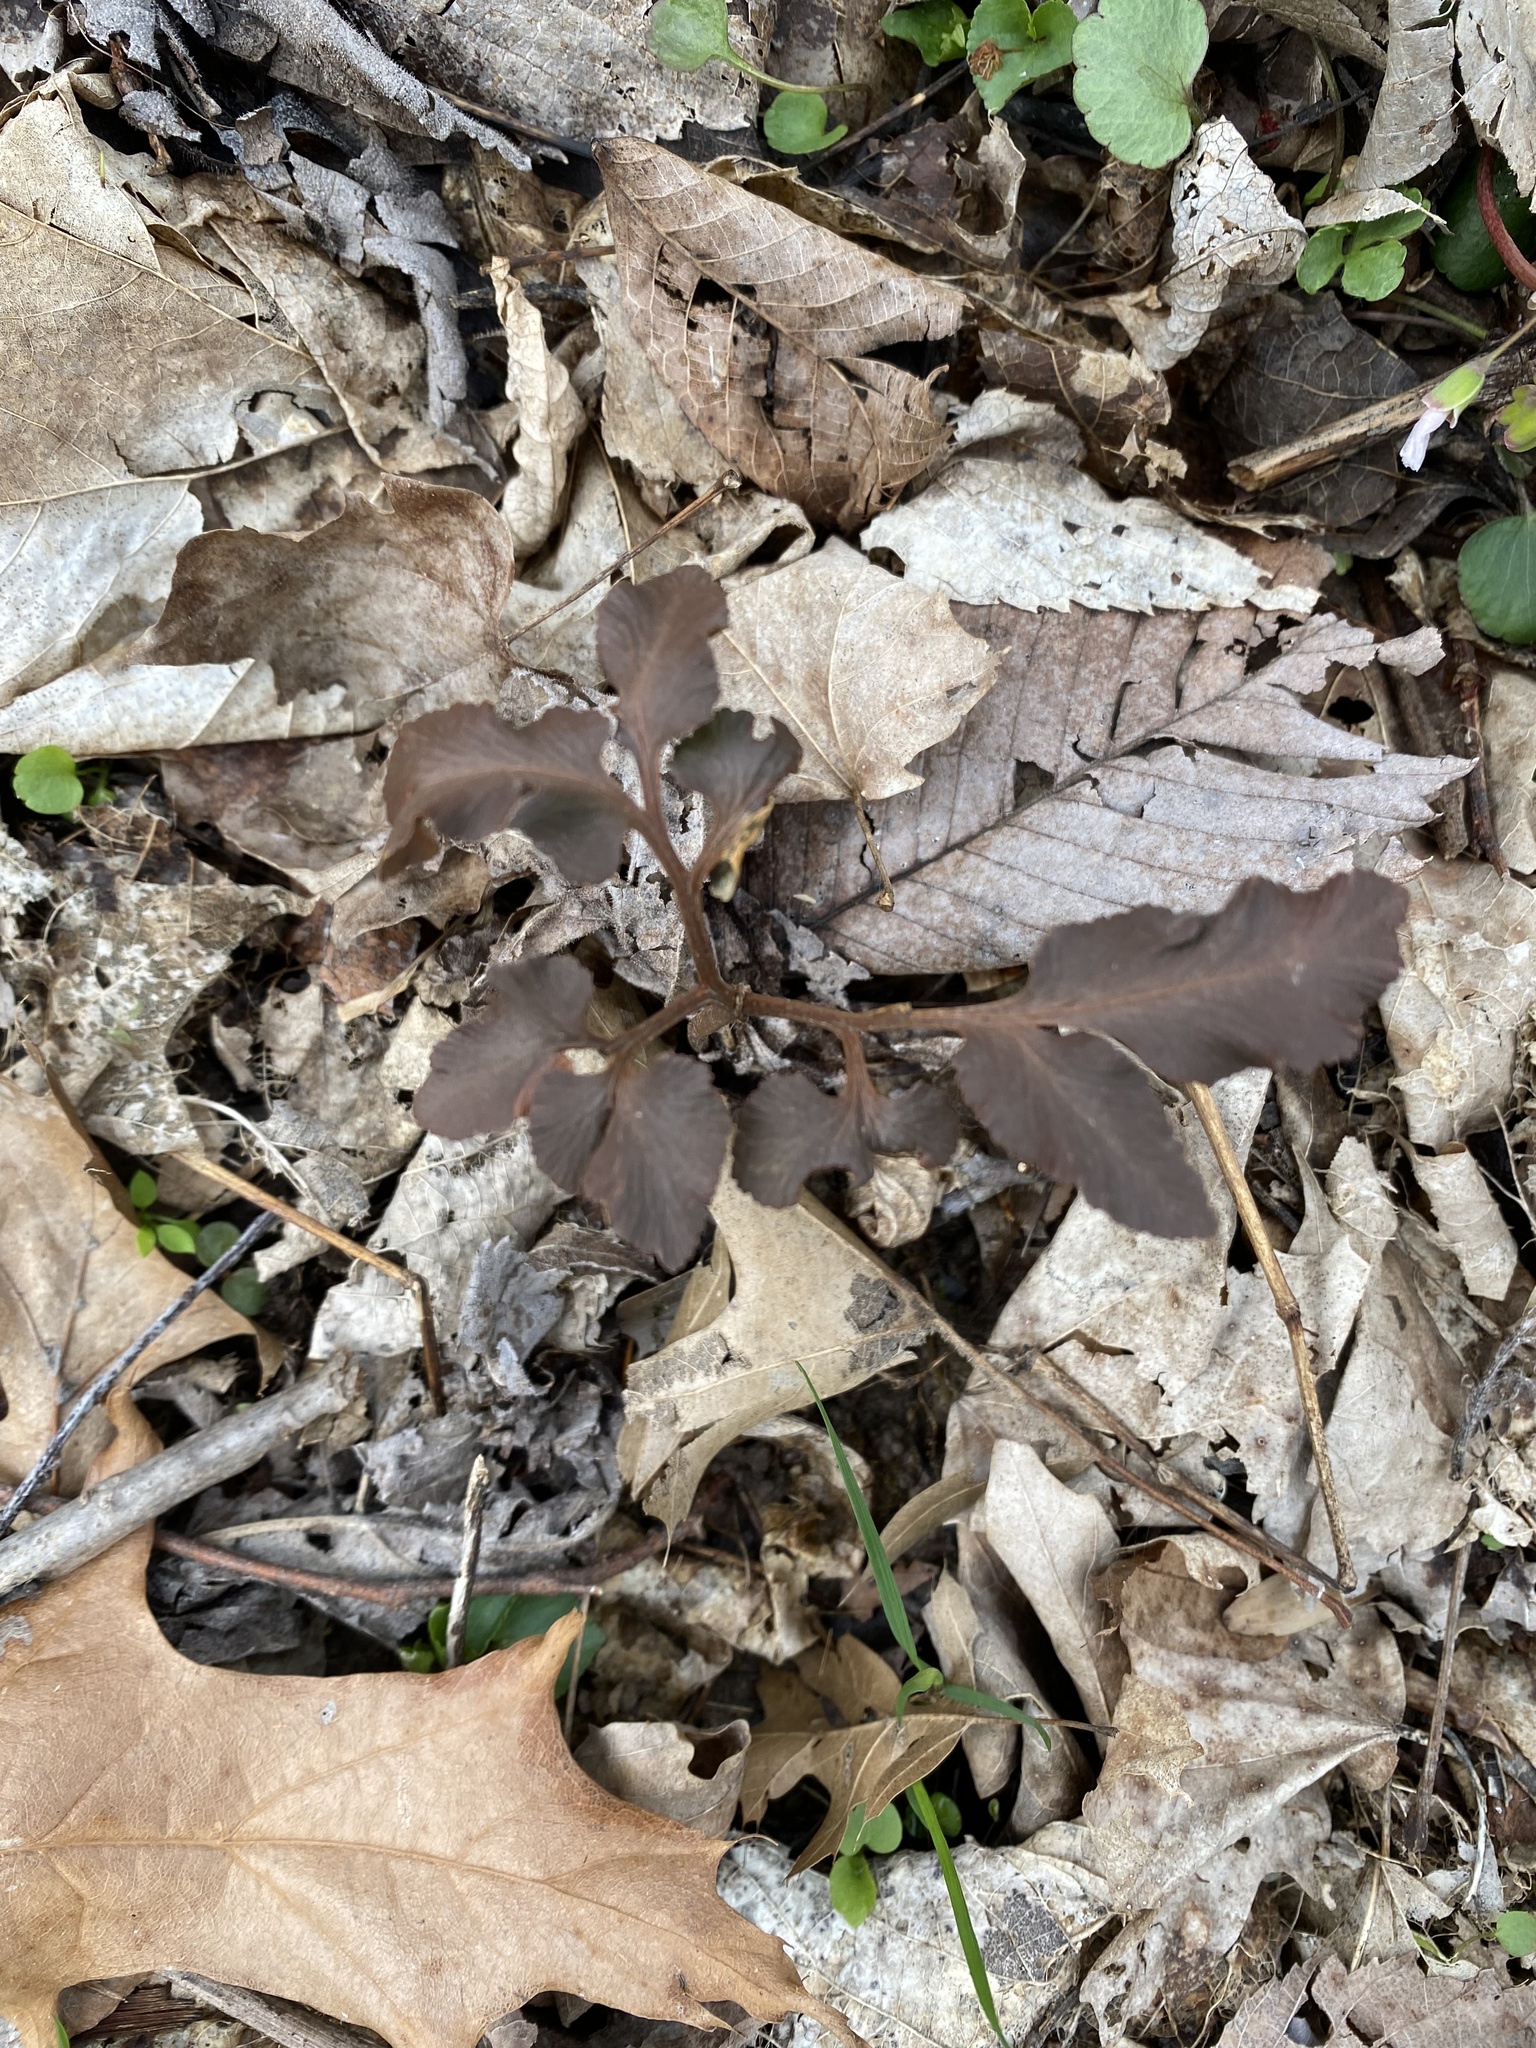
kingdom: Plantae
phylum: Tracheophyta
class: Polypodiopsida
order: Ophioglossales
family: Ophioglossaceae
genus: Sceptridium
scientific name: Sceptridium dissectum
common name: Cut-leaved grapefern
